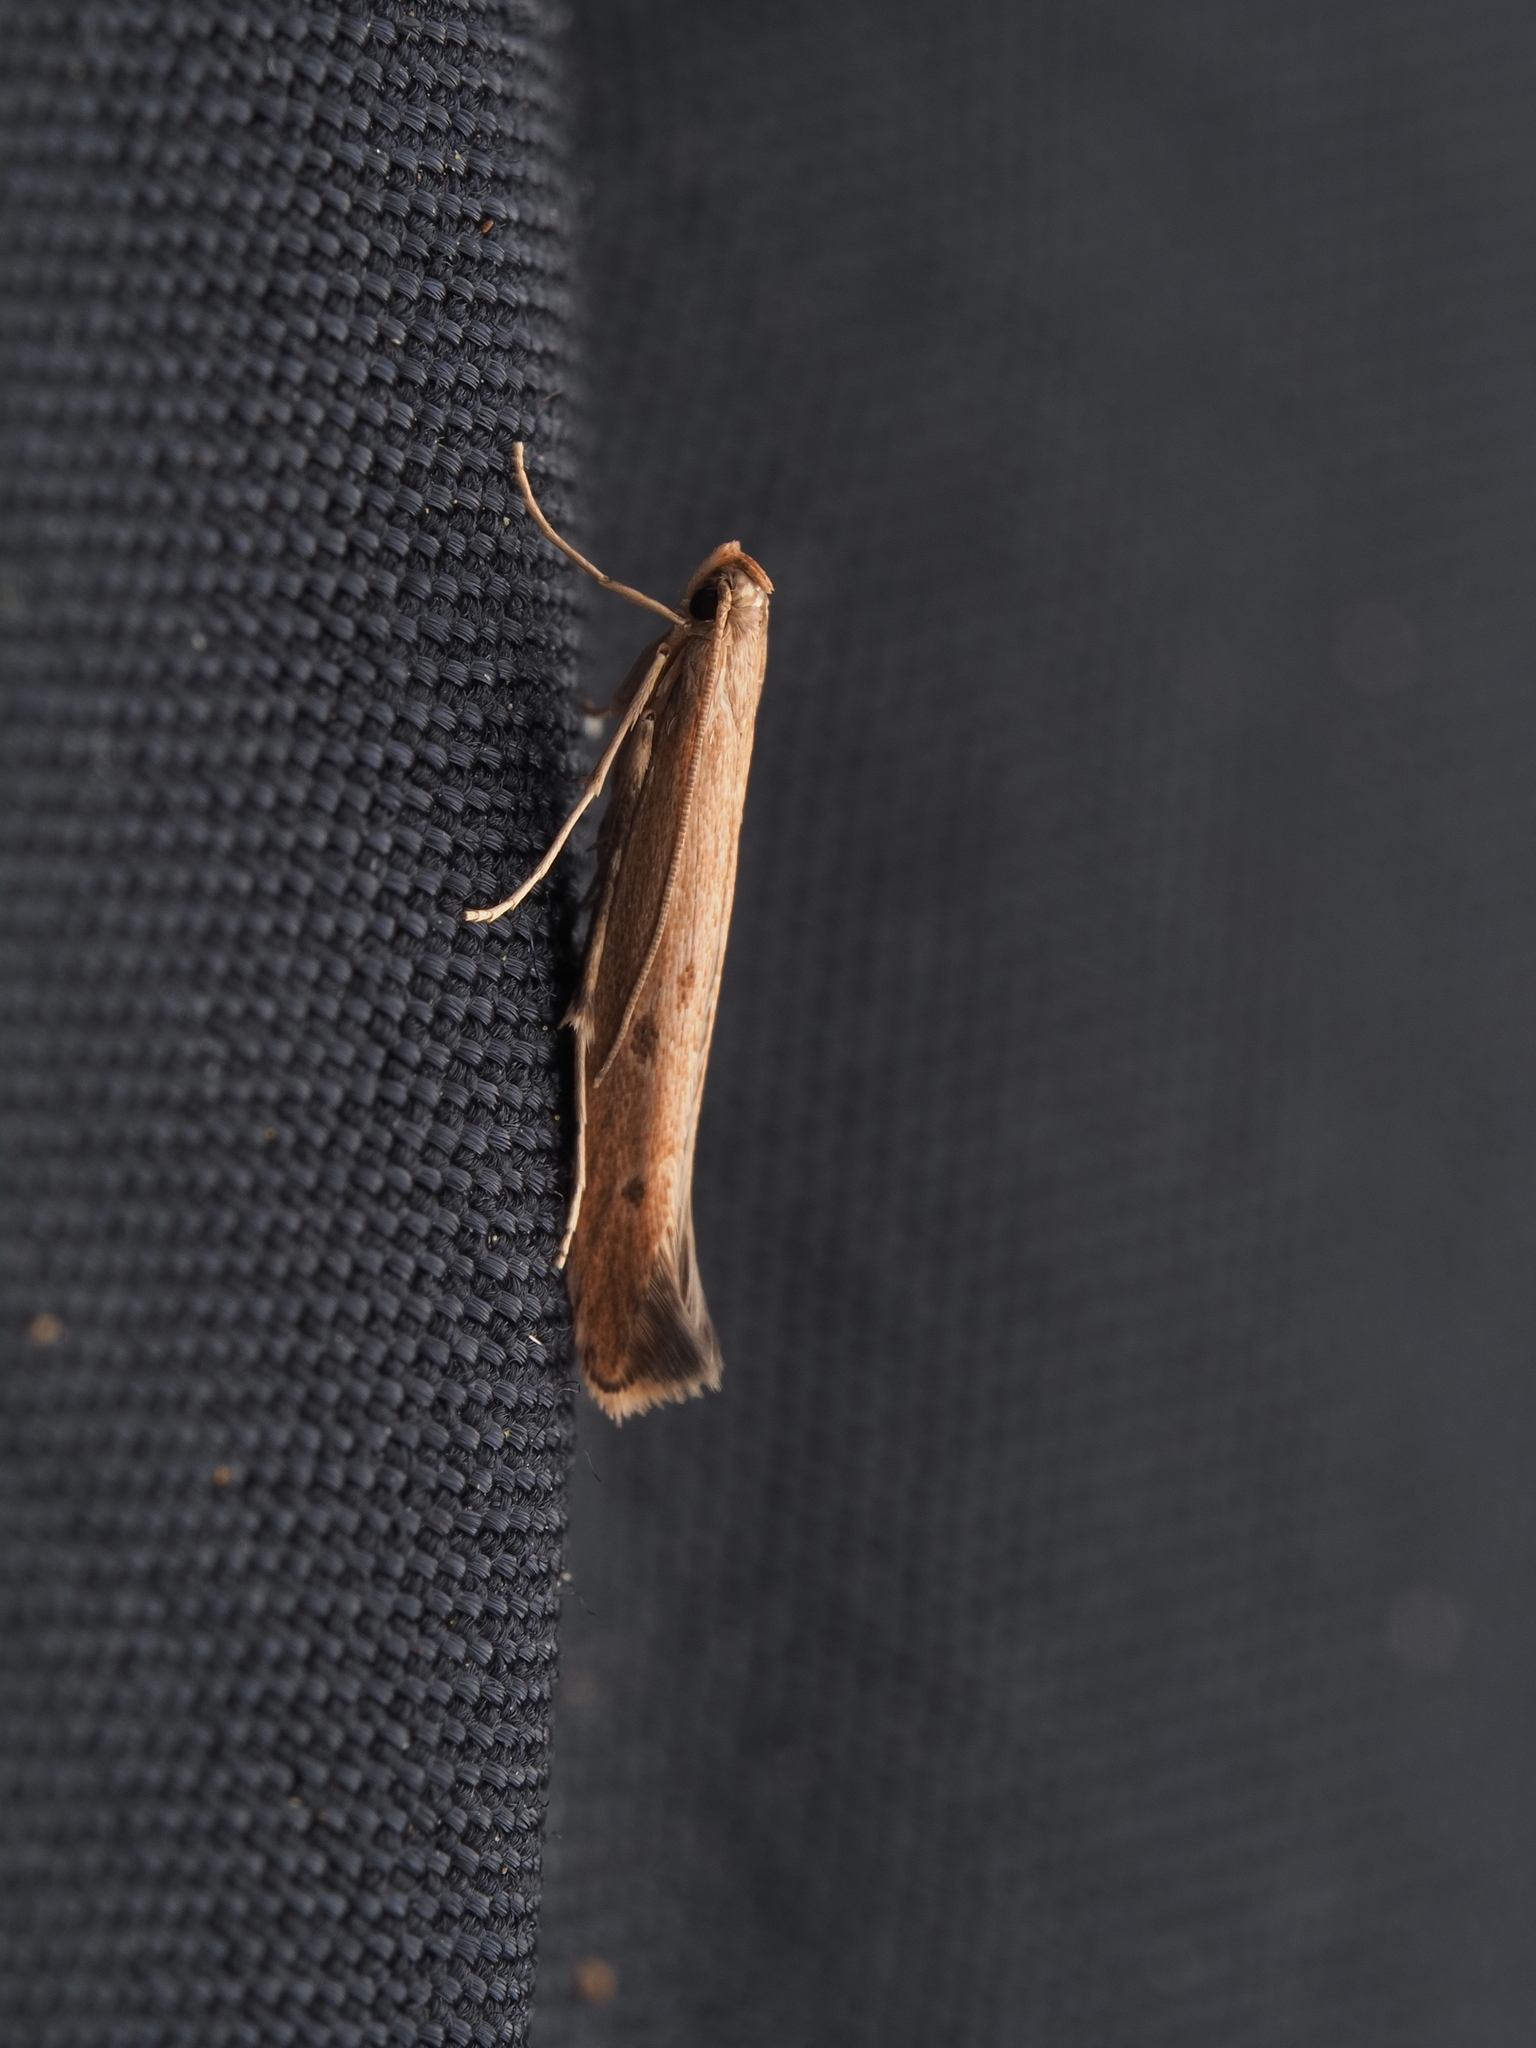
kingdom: Animalia
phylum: Arthropoda
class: Insecta
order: Lepidoptera
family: Batrachedridae
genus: Batrachedra
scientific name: Batrachedra agaura
